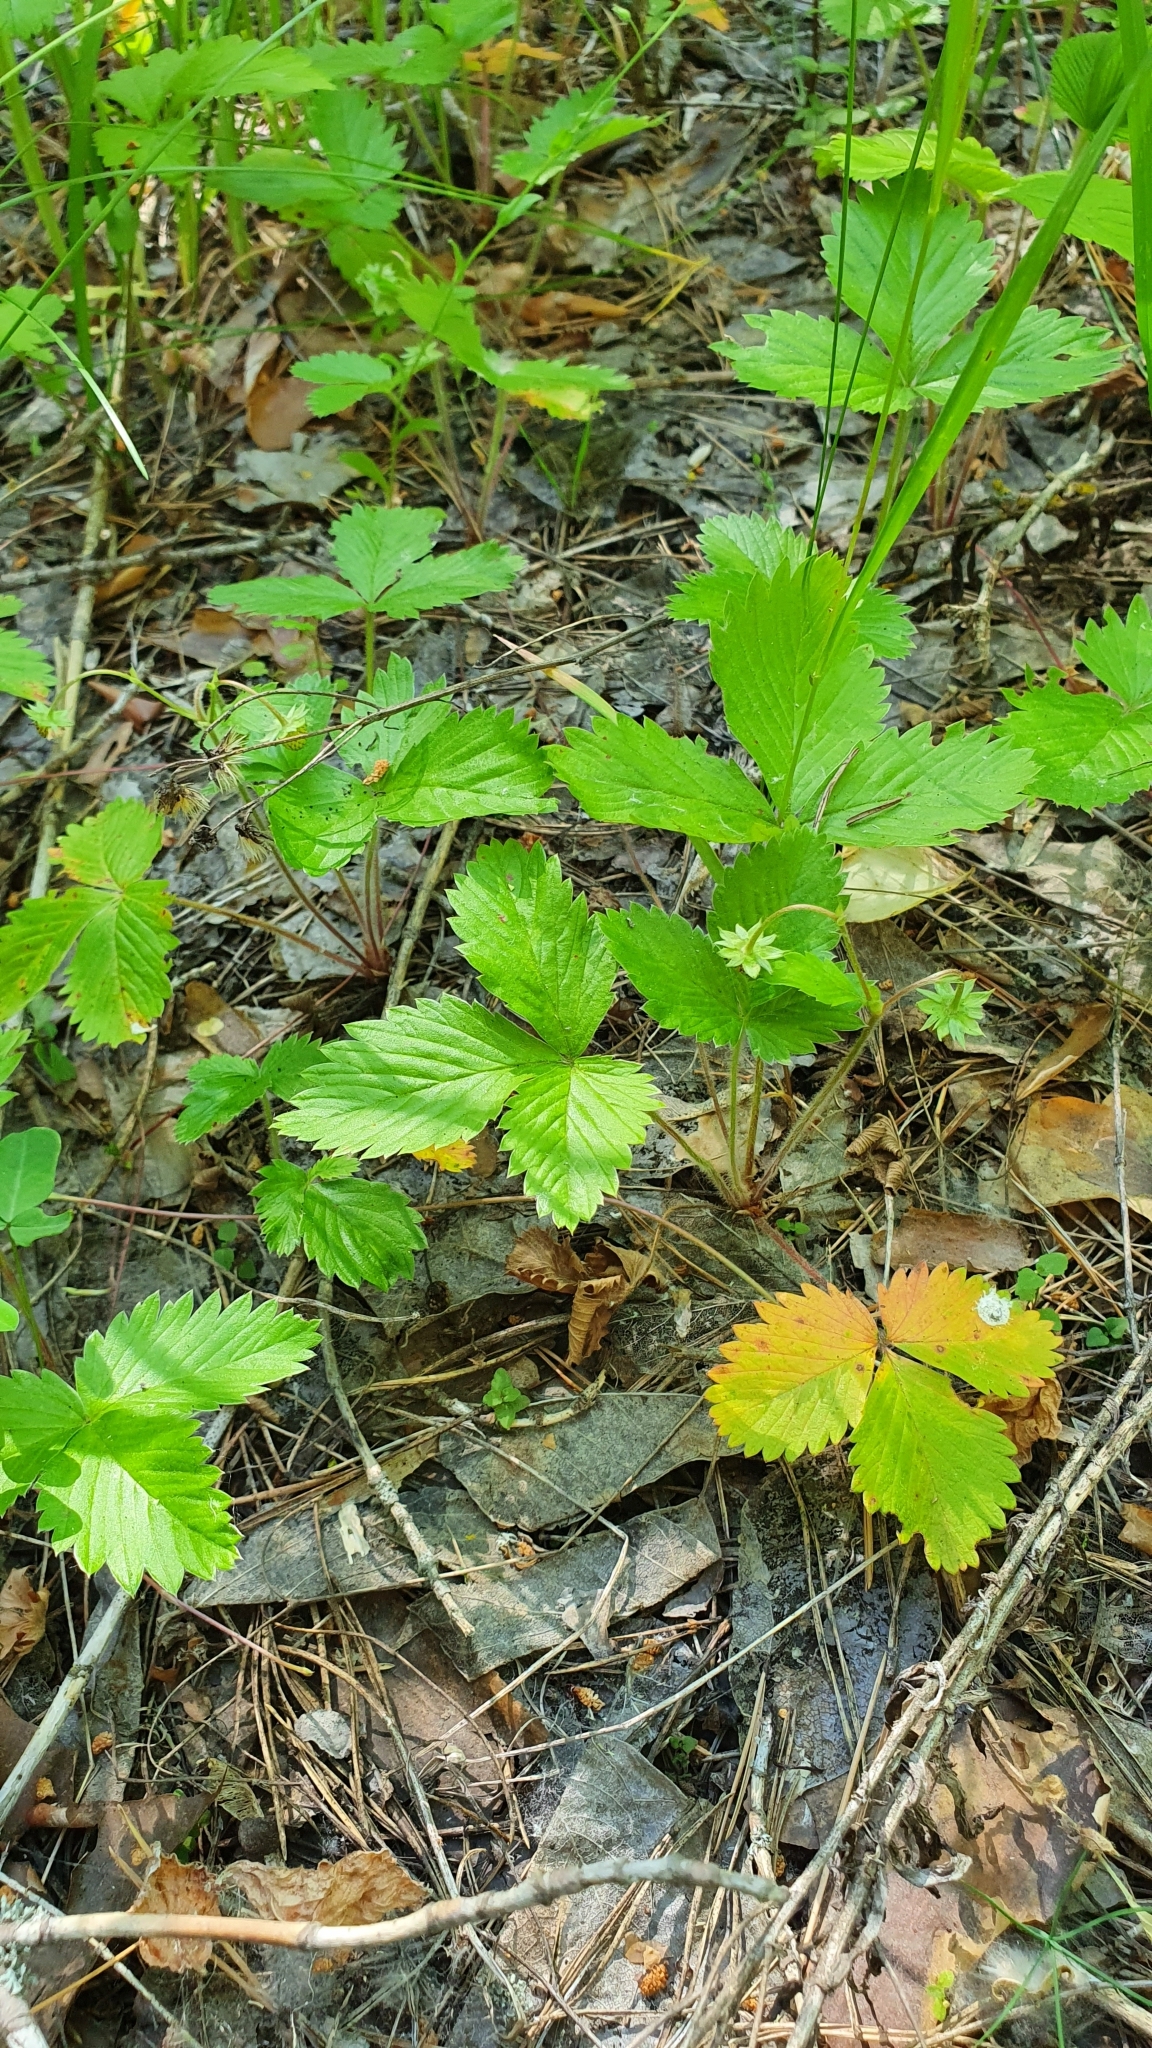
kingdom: Plantae
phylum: Tracheophyta
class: Magnoliopsida
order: Rosales
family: Rosaceae
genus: Fragaria
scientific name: Fragaria vesca
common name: Wild strawberry
